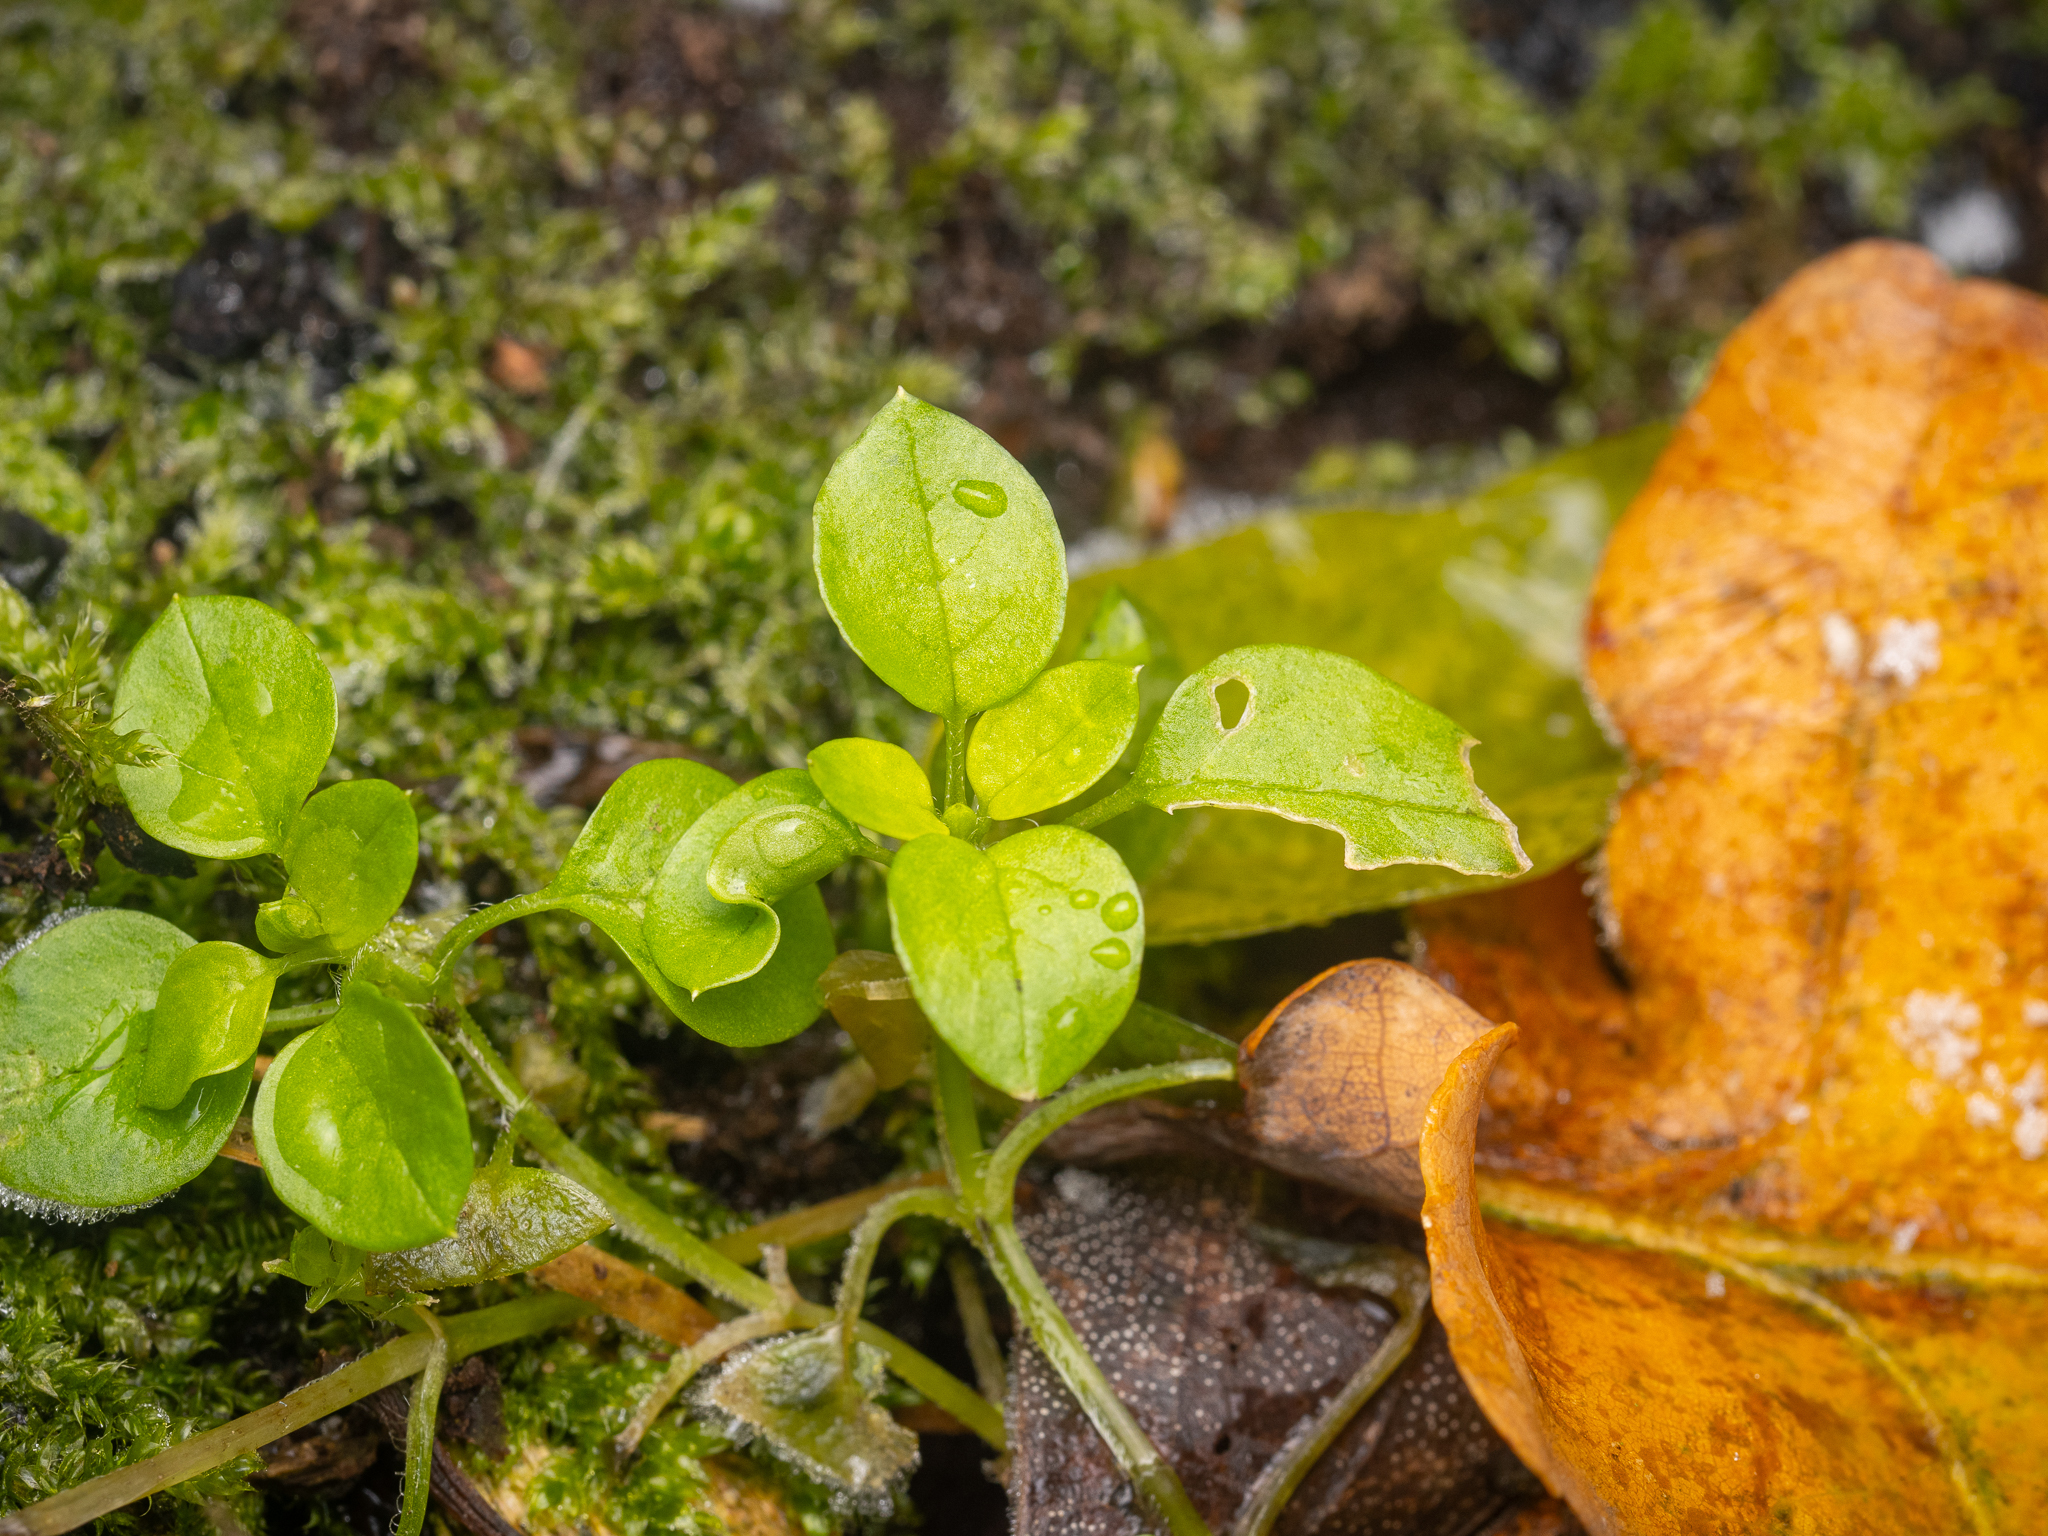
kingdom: Plantae
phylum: Tracheophyta
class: Magnoliopsida
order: Caryophyllales
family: Caryophyllaceae
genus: Stellaria
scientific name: Stellaria media
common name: Common chickweed
